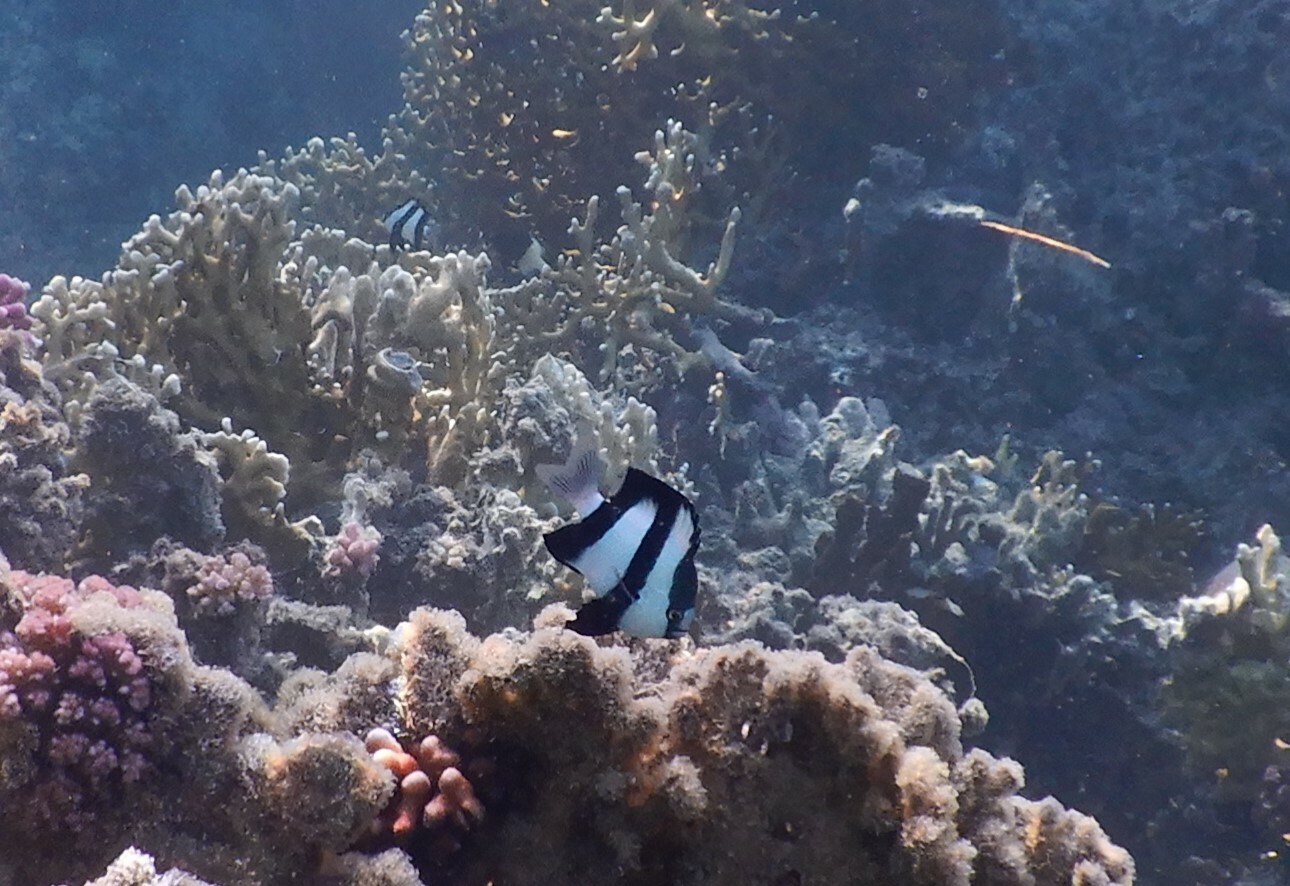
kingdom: Animalia
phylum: Chordata
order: Perciformes
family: Pomacentridae
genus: Dascyllus
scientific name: Dascyllus abudafur
